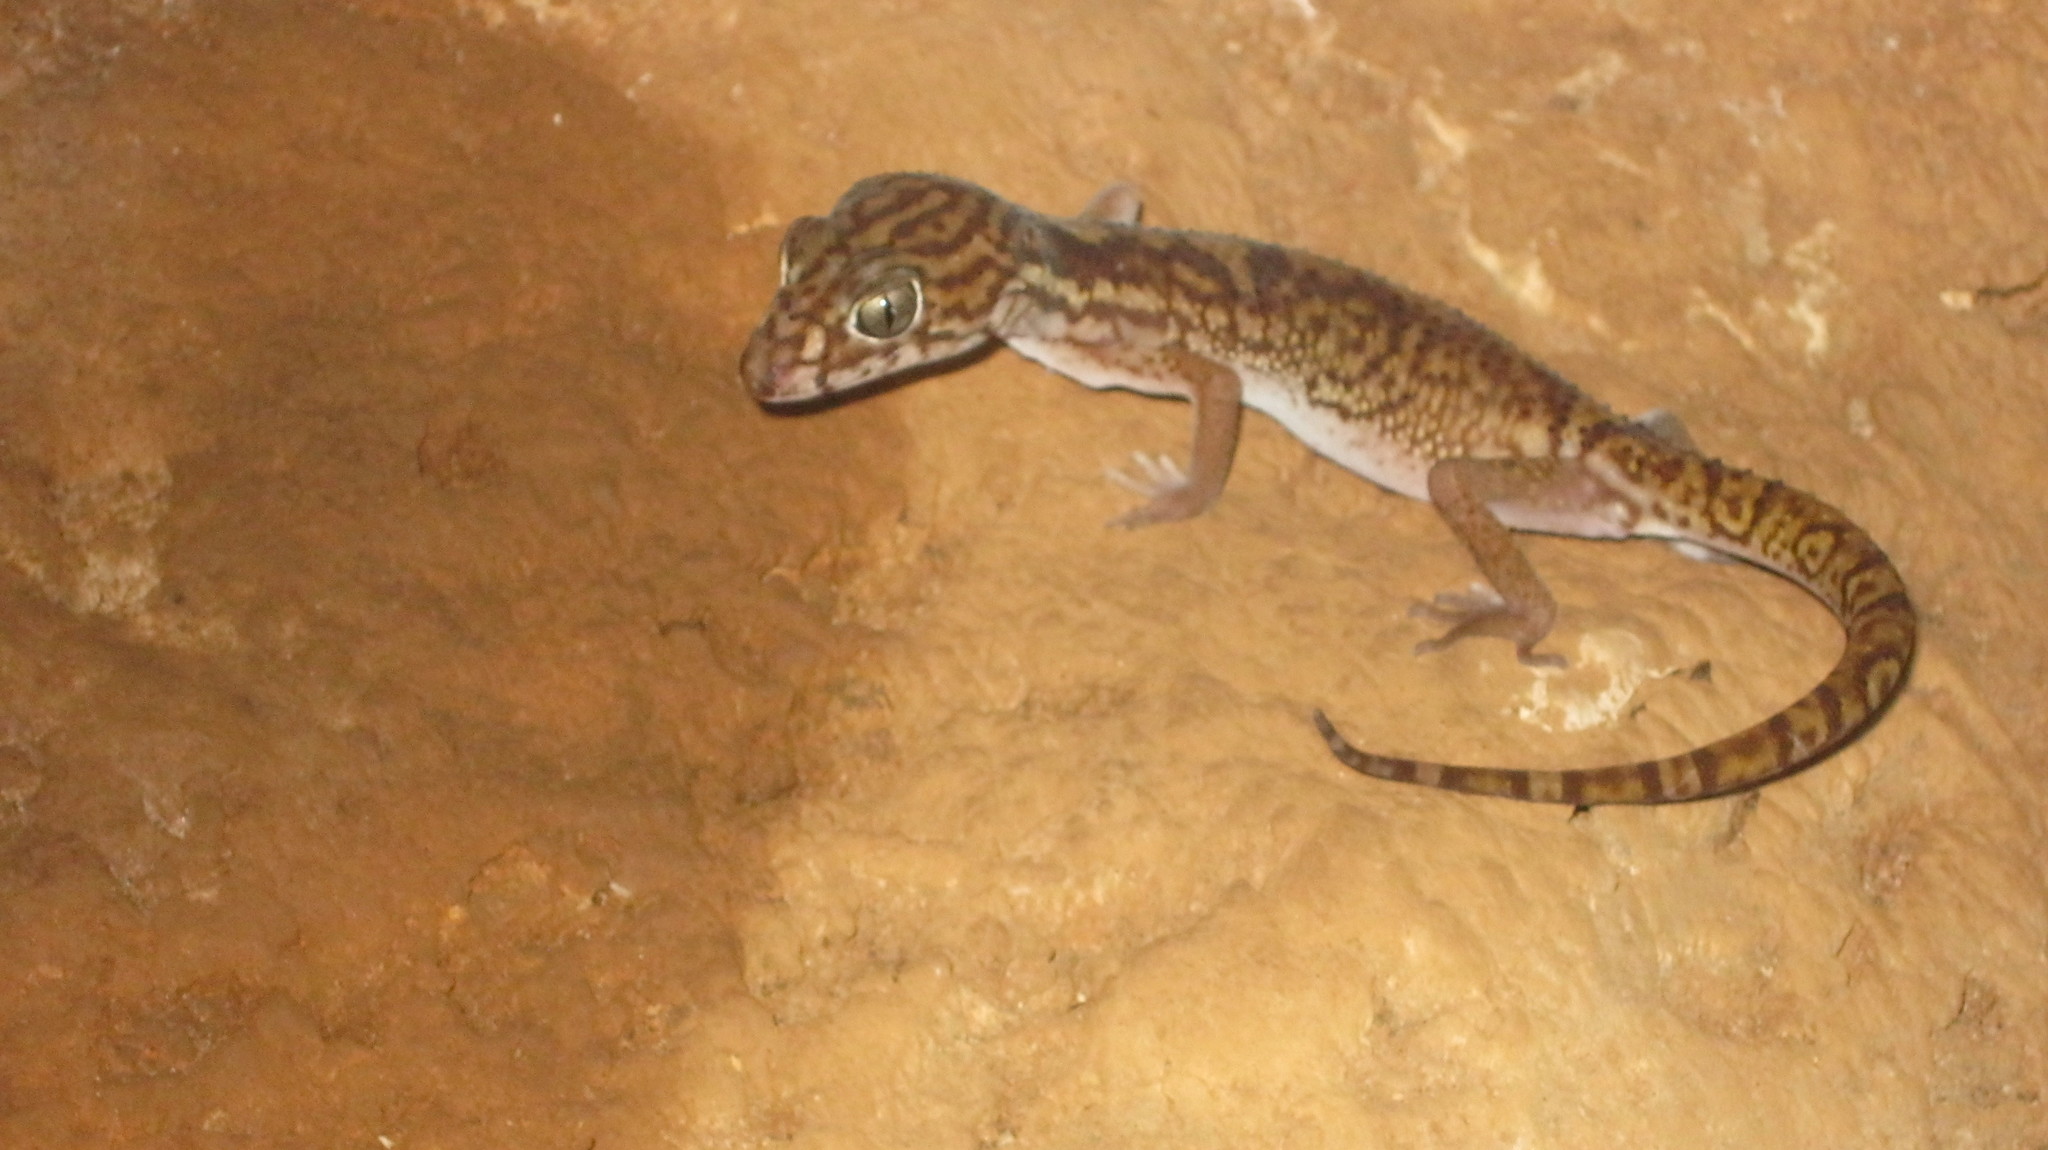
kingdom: Animalia
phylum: Chordata
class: Squamata
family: Eublepharidae
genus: Coleonyx
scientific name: Coleonyx elegans
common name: Yucatan banded gecko
